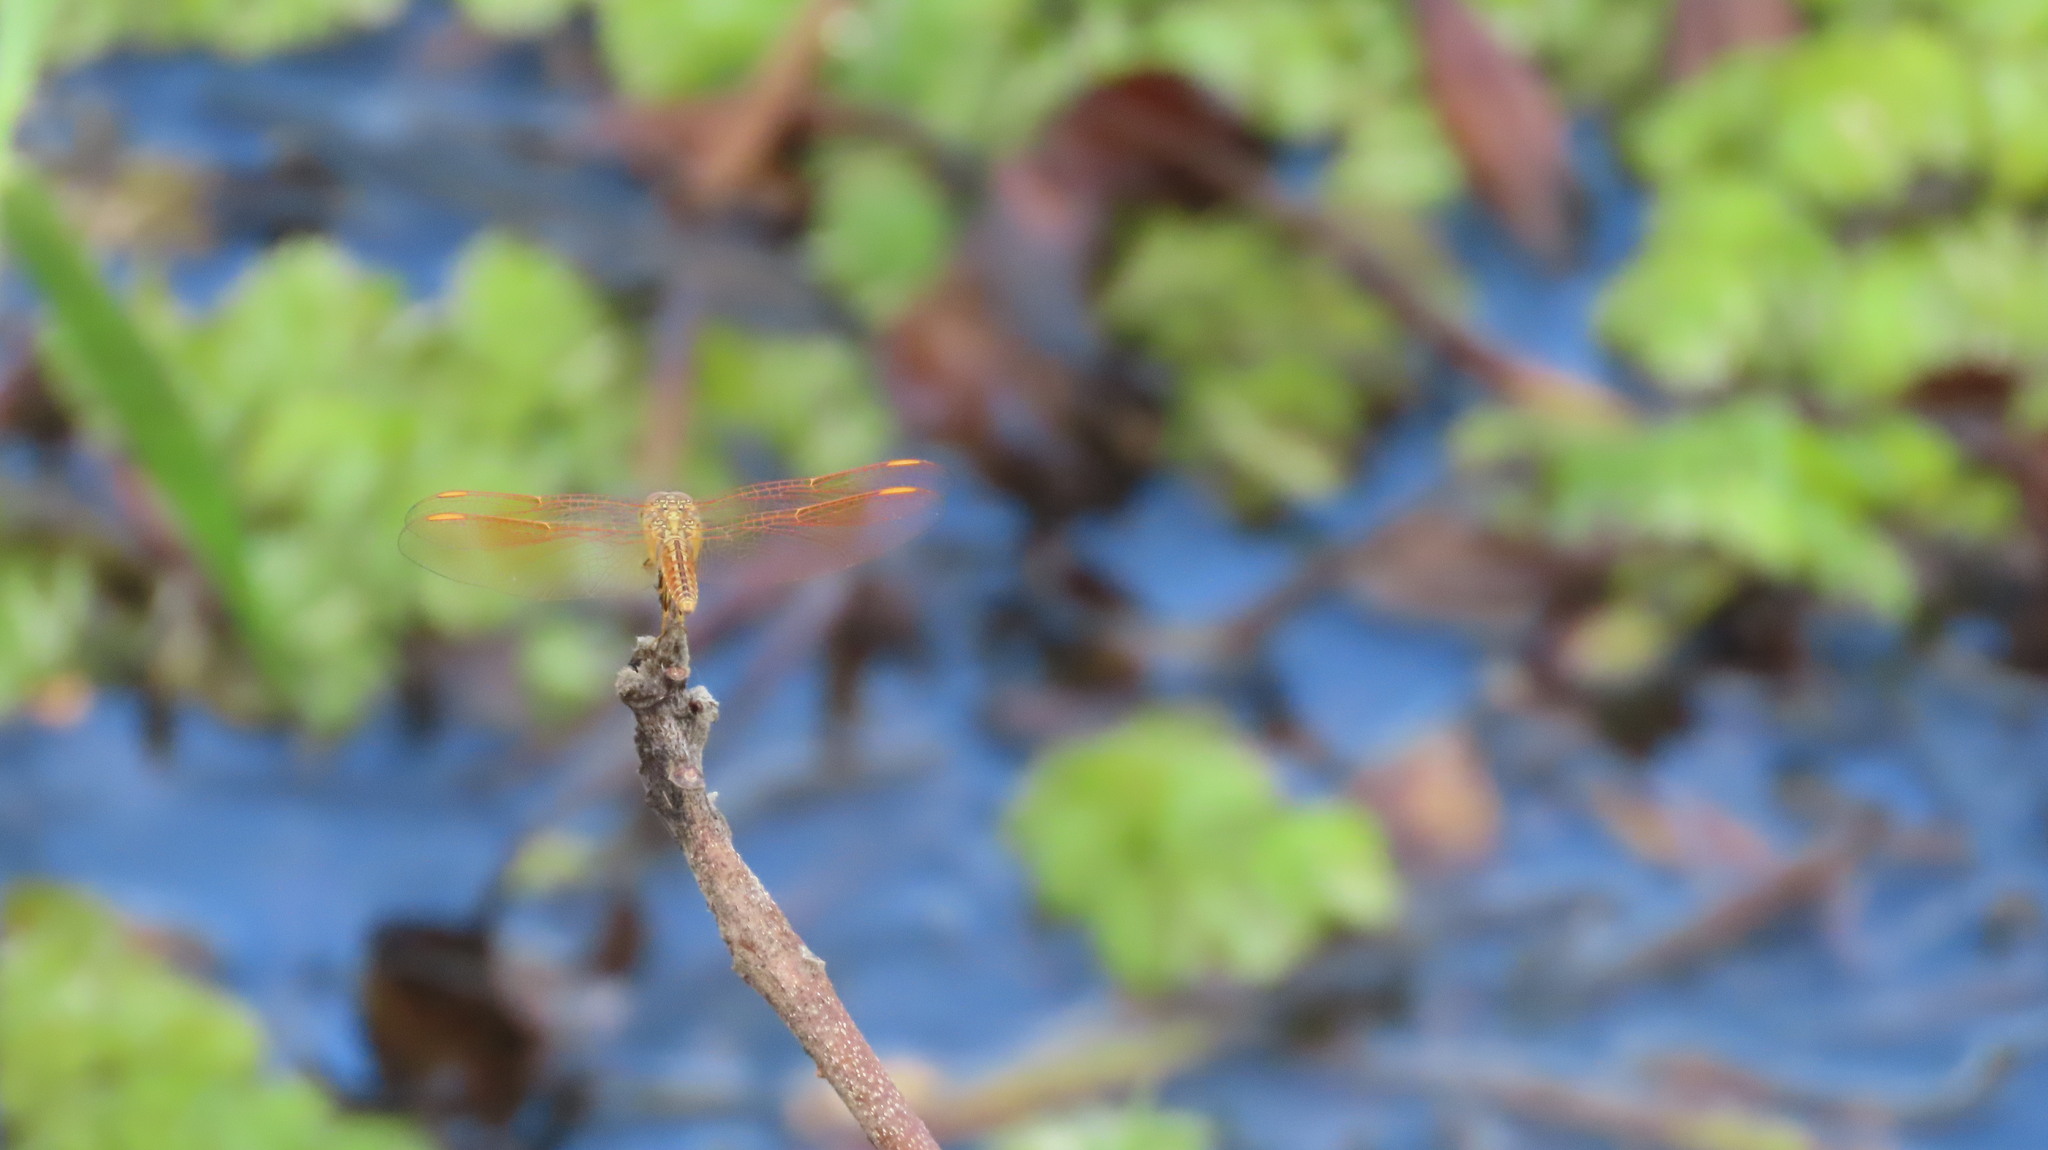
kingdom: Animalia
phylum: Arthropoda
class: Insecta
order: Odonata
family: Libellulidae
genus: Brachythemis
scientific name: Brachythemis contaminata
